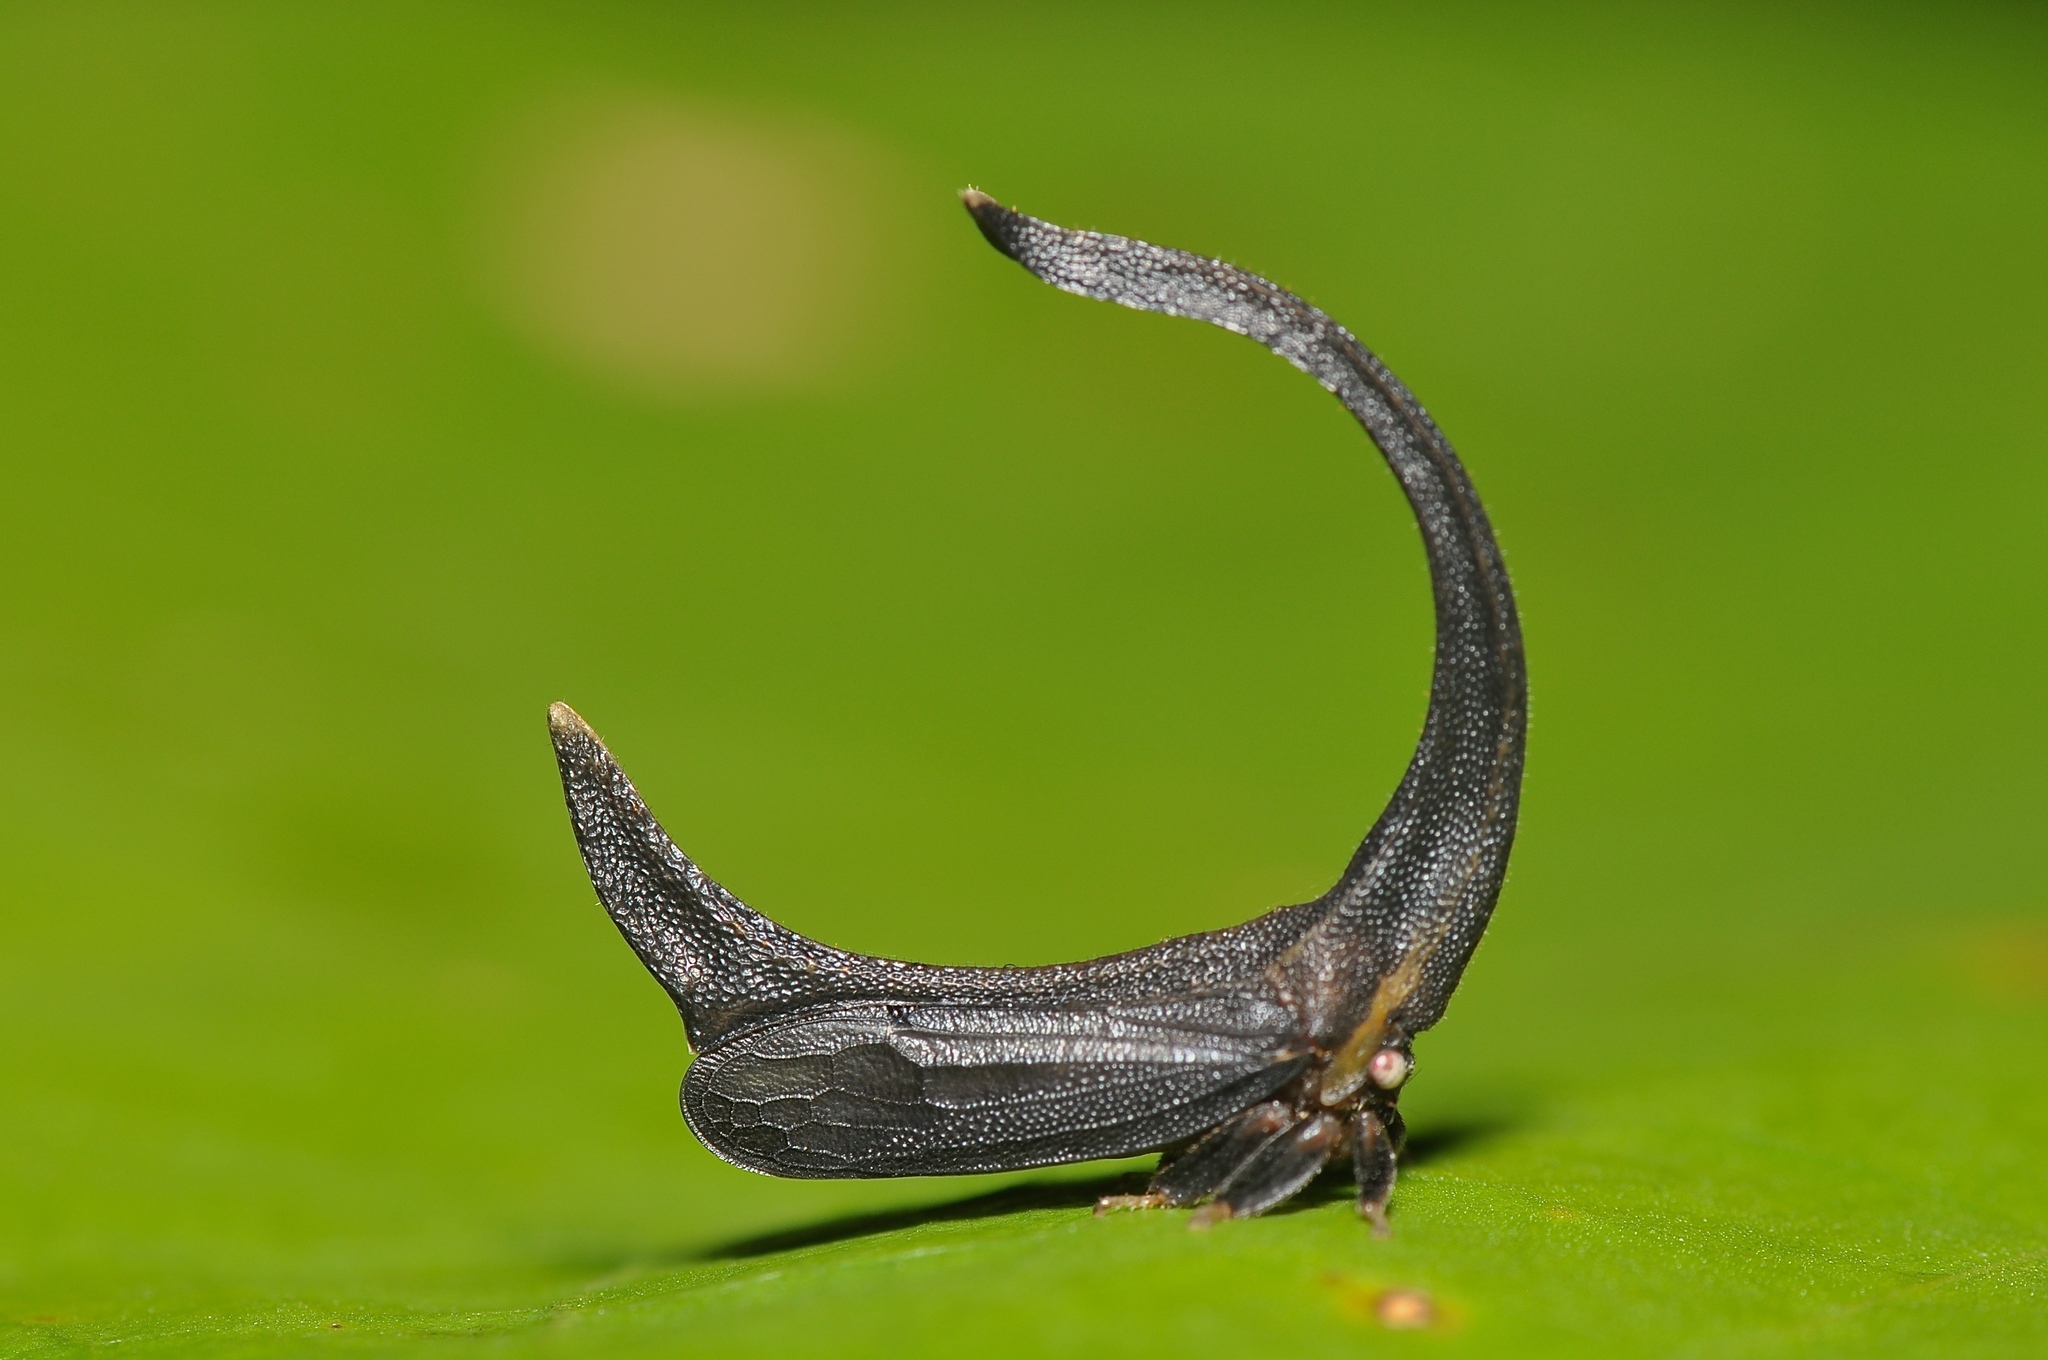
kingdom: Animalia
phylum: Arthropoda
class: Insecta
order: Hemiptera
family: Membracidae
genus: Cladonota
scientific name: Cladonota apicalis
